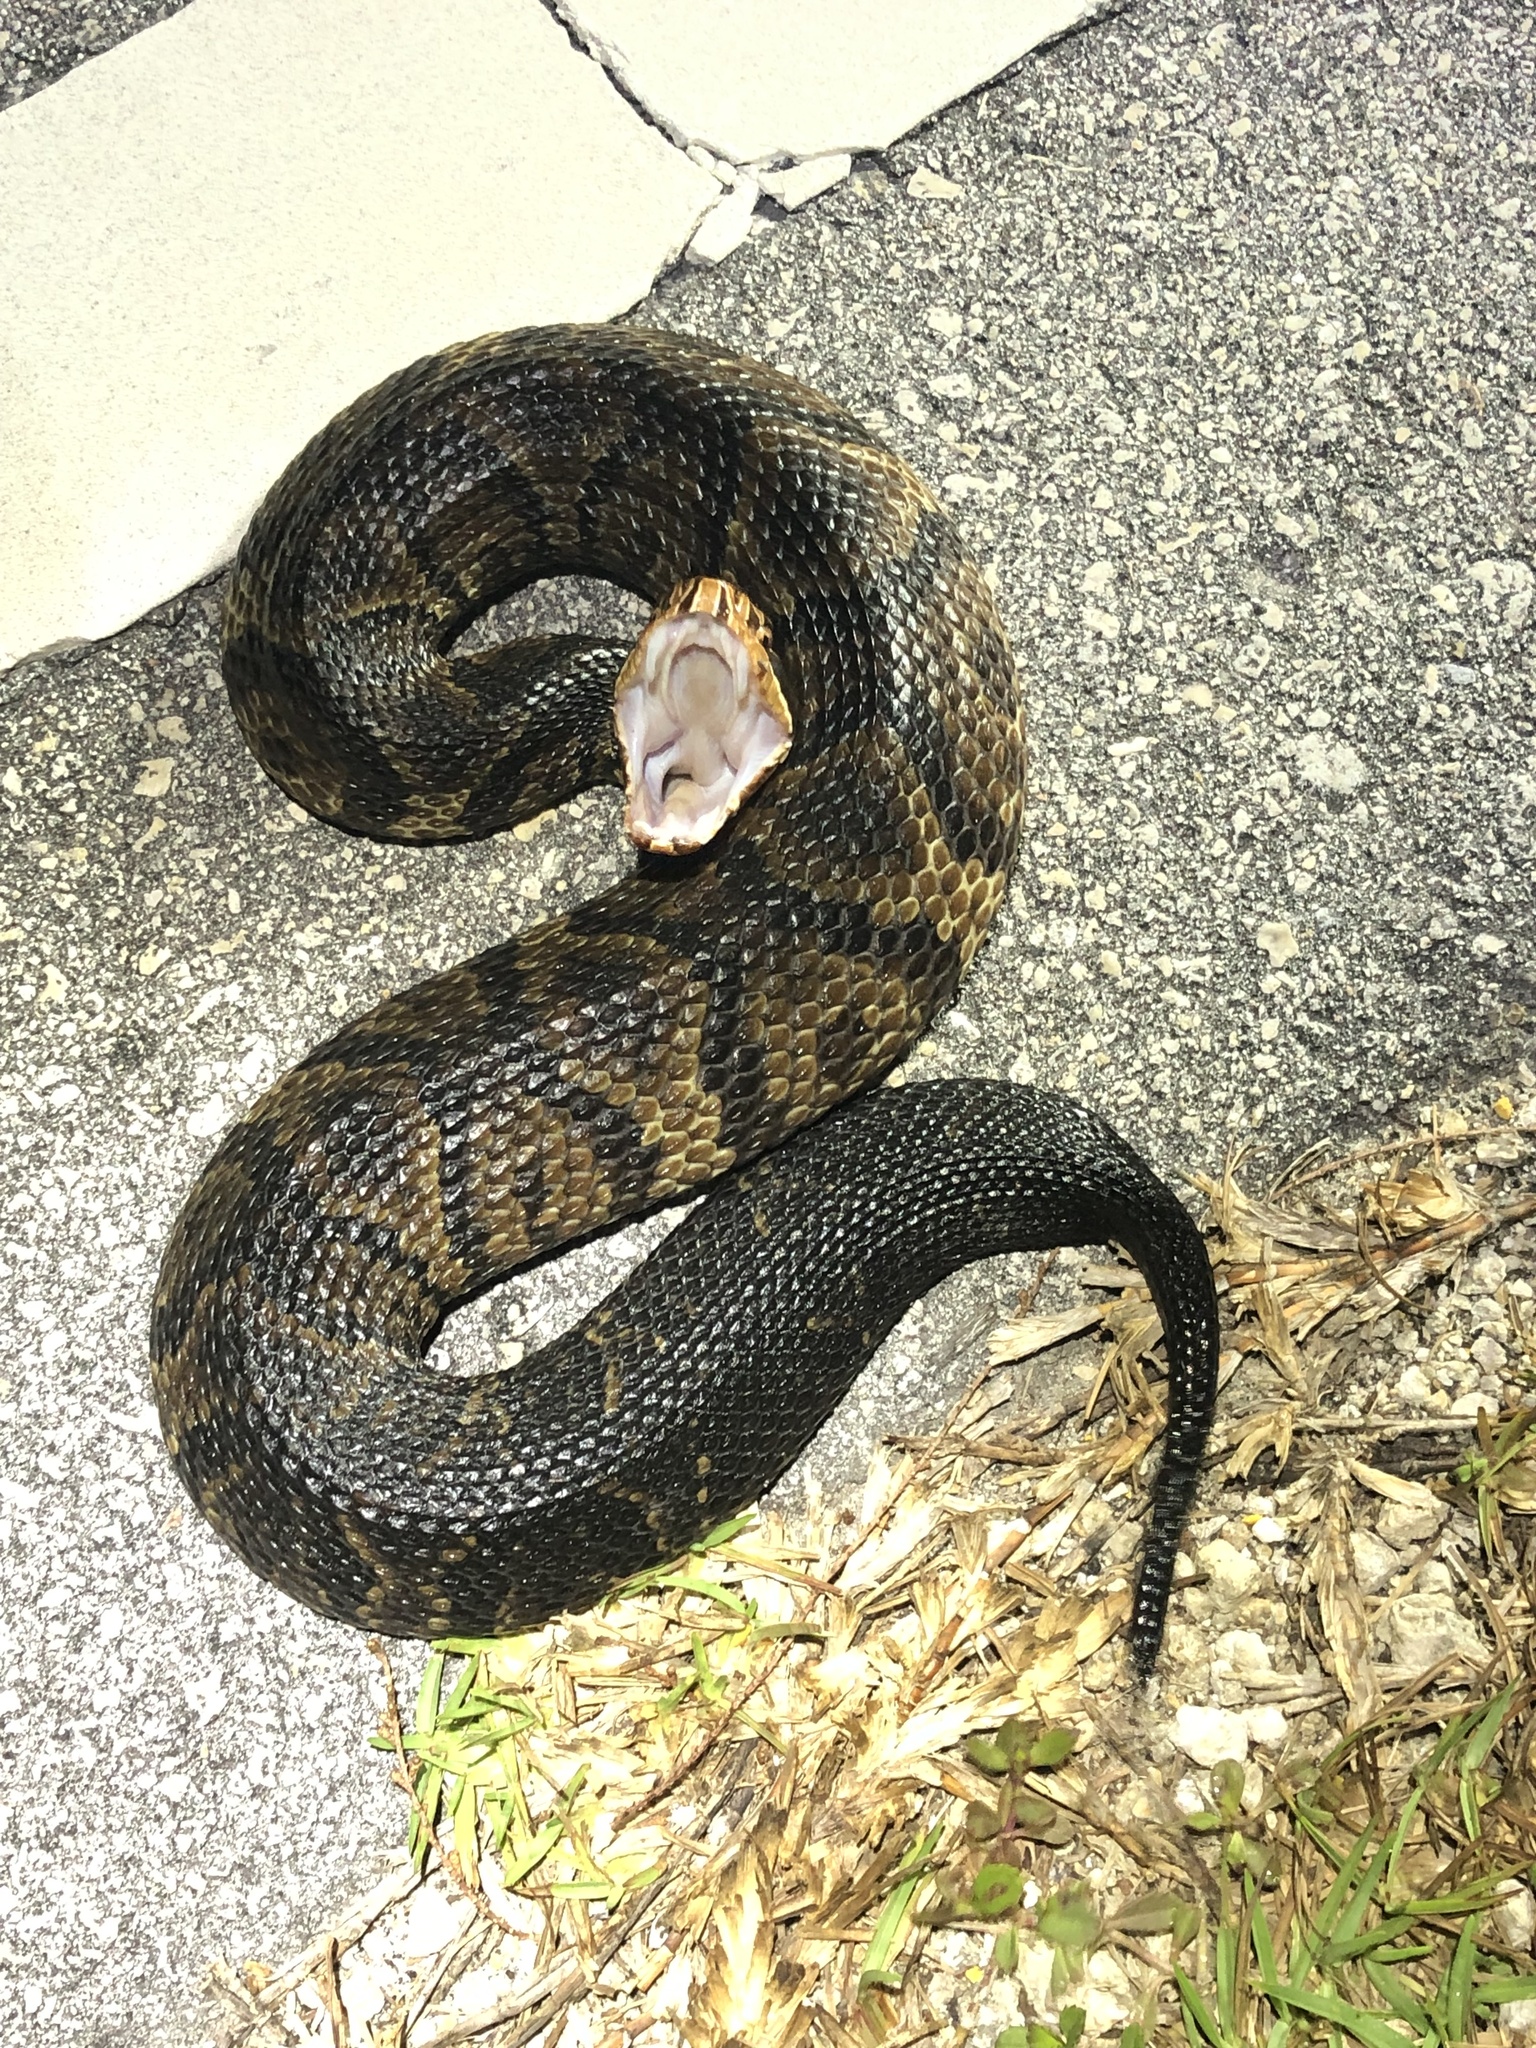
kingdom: Animalia
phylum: Chordata
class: Squamata
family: Viperidae
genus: Agkistrodon
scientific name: Agkistrodon conanti
